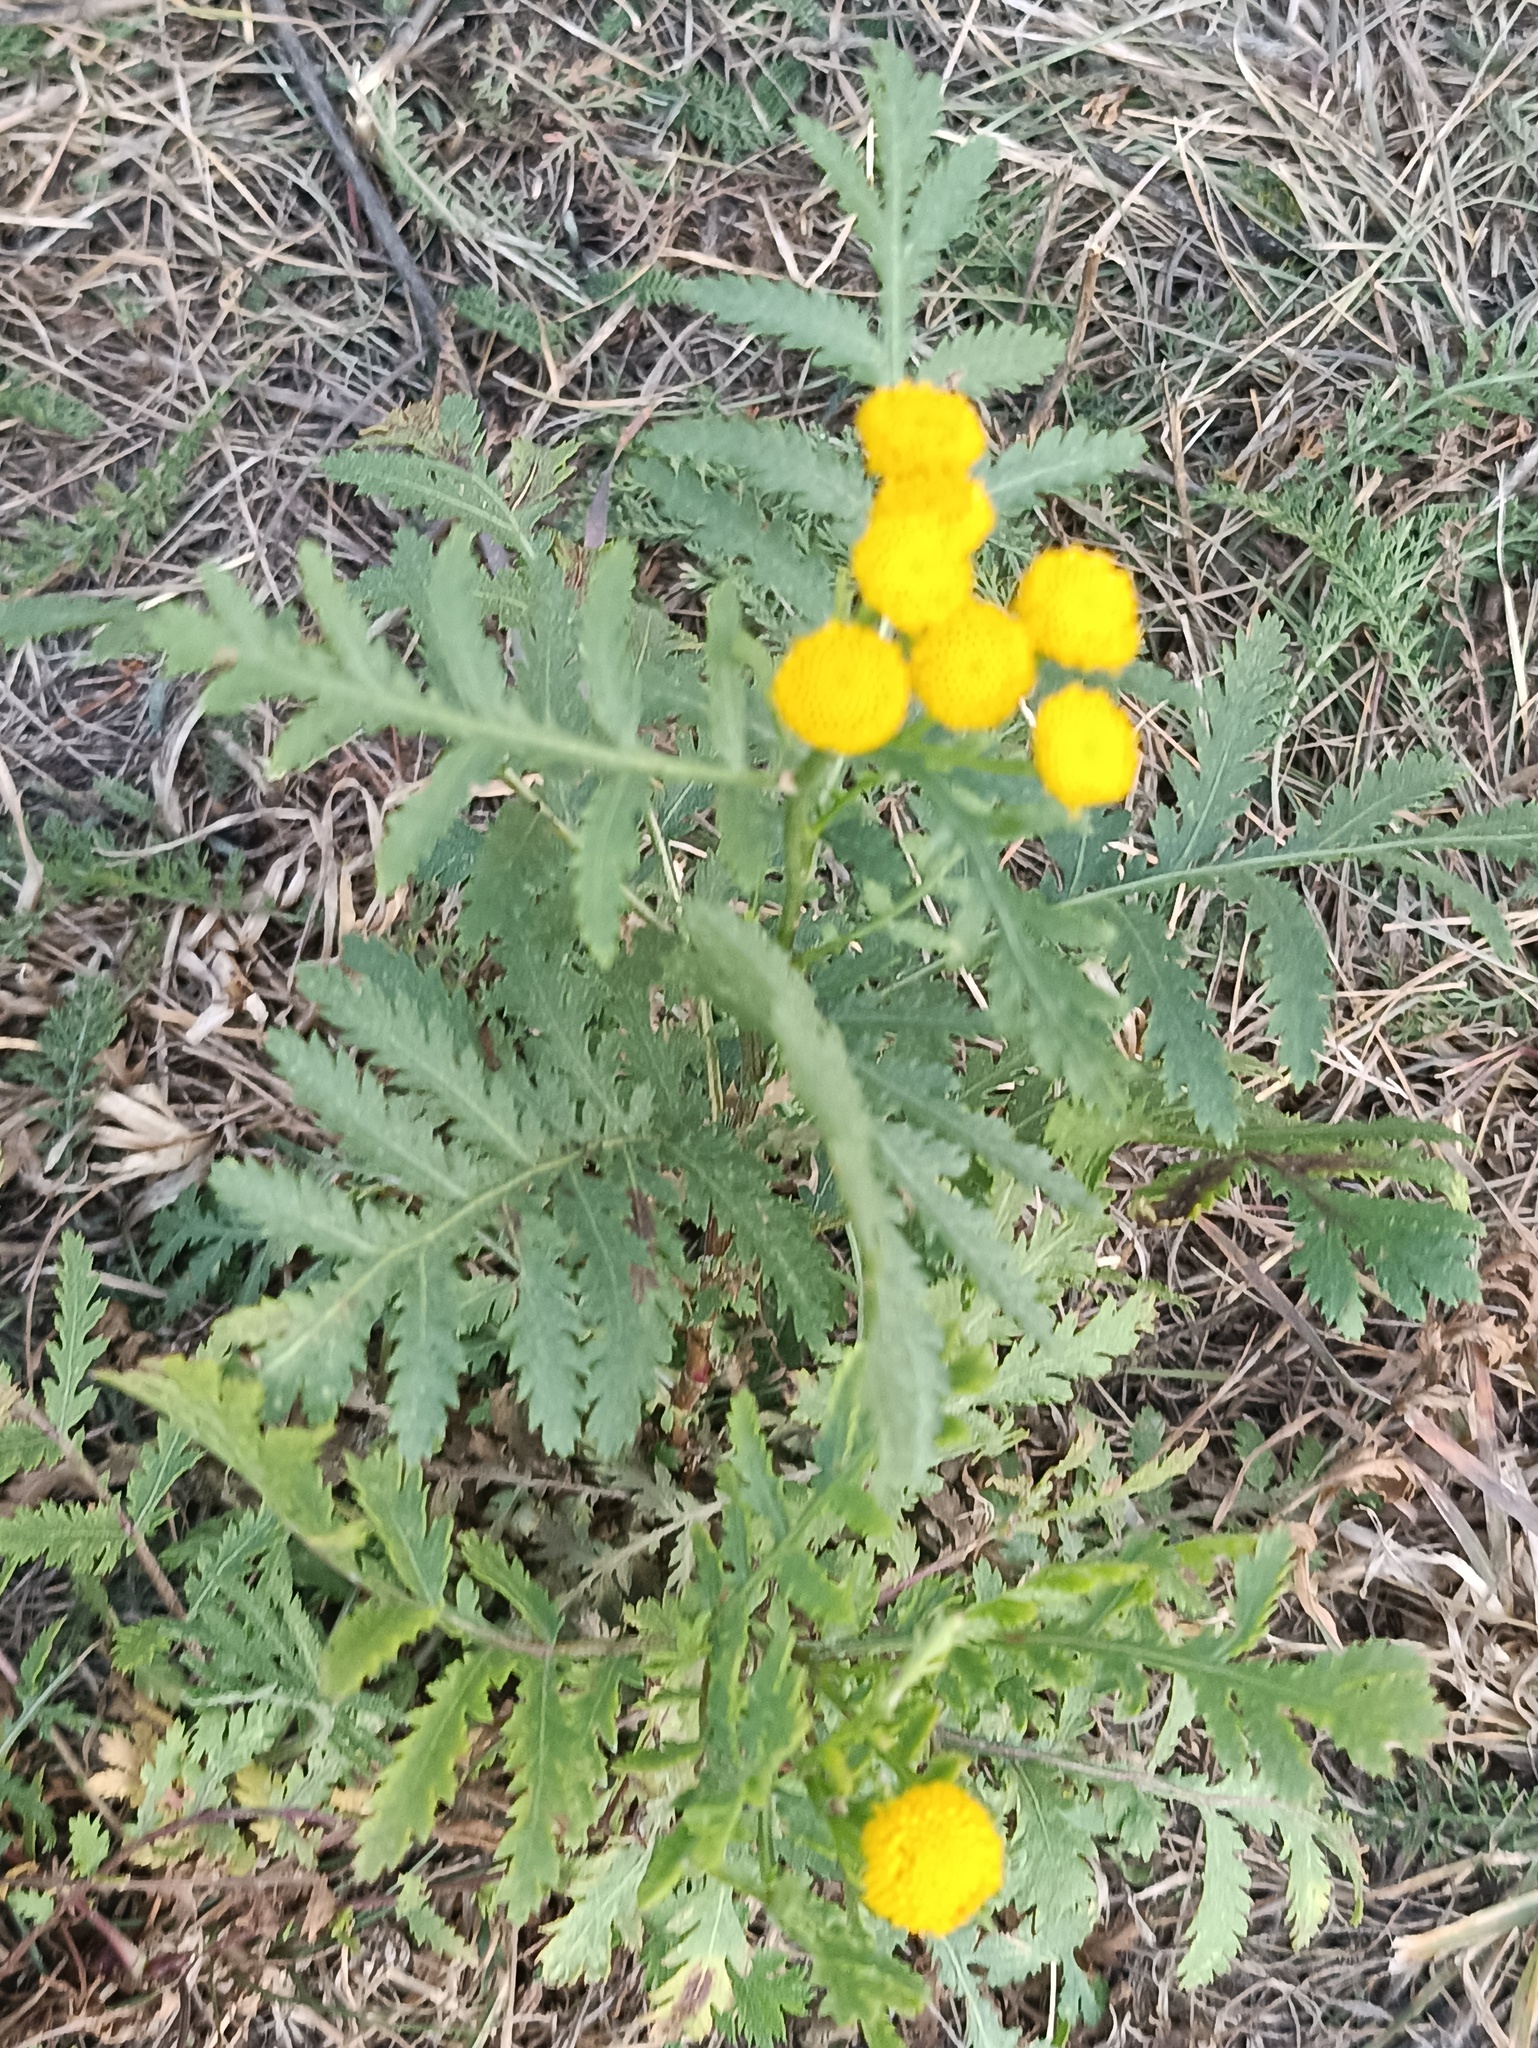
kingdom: Plantae
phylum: Tracheophyta
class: Magnoliopsida
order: Asterales
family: Asteraceae
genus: Tanacetum
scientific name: Tanacetum vulgare
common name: Common tansy
